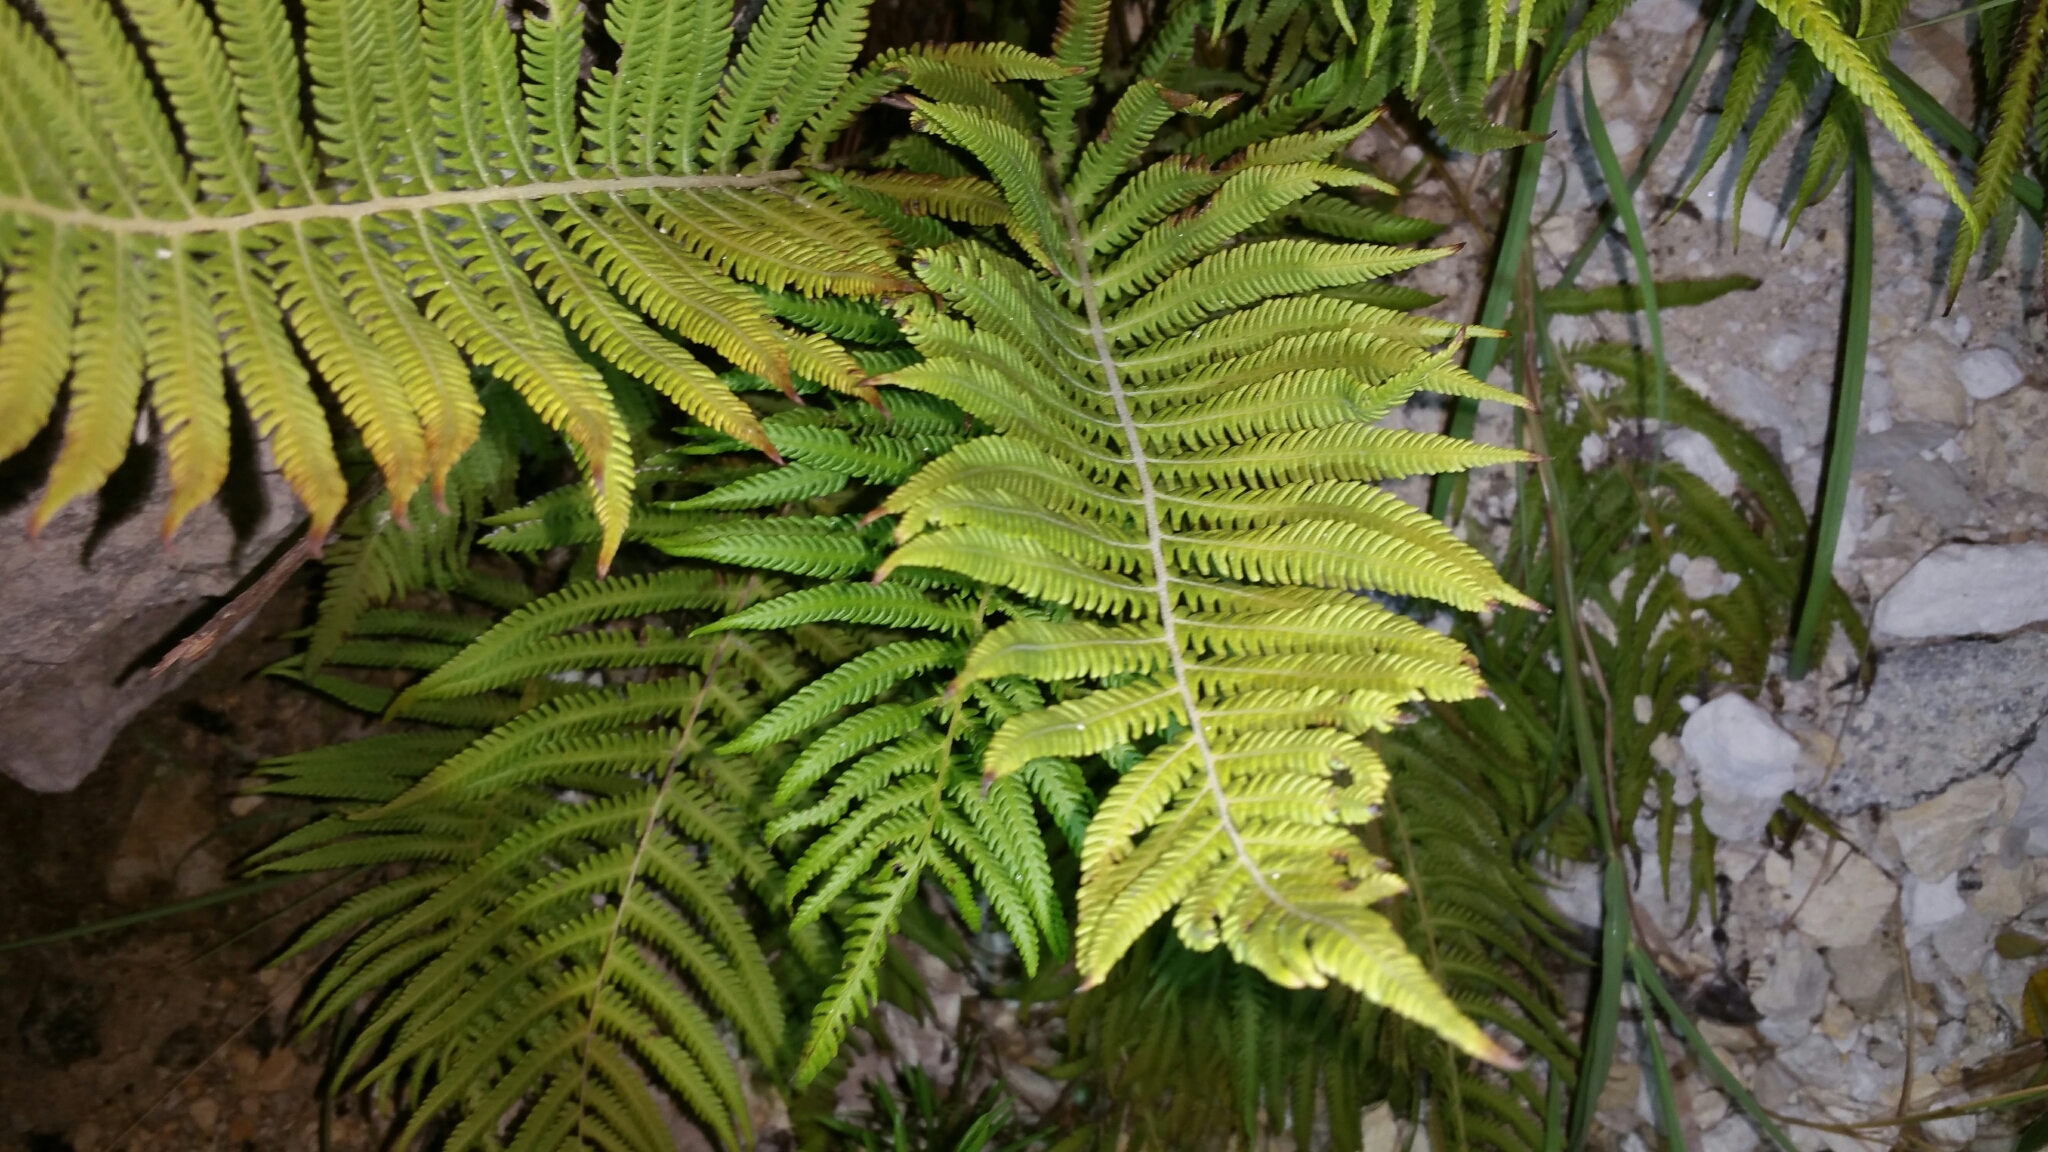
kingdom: Plantae
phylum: Tracheophyta
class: Polypodiopsida
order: Polypodiales
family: Thelypteridaceae
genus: Pelazoneuron
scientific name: Pelazoneuron ovatum
